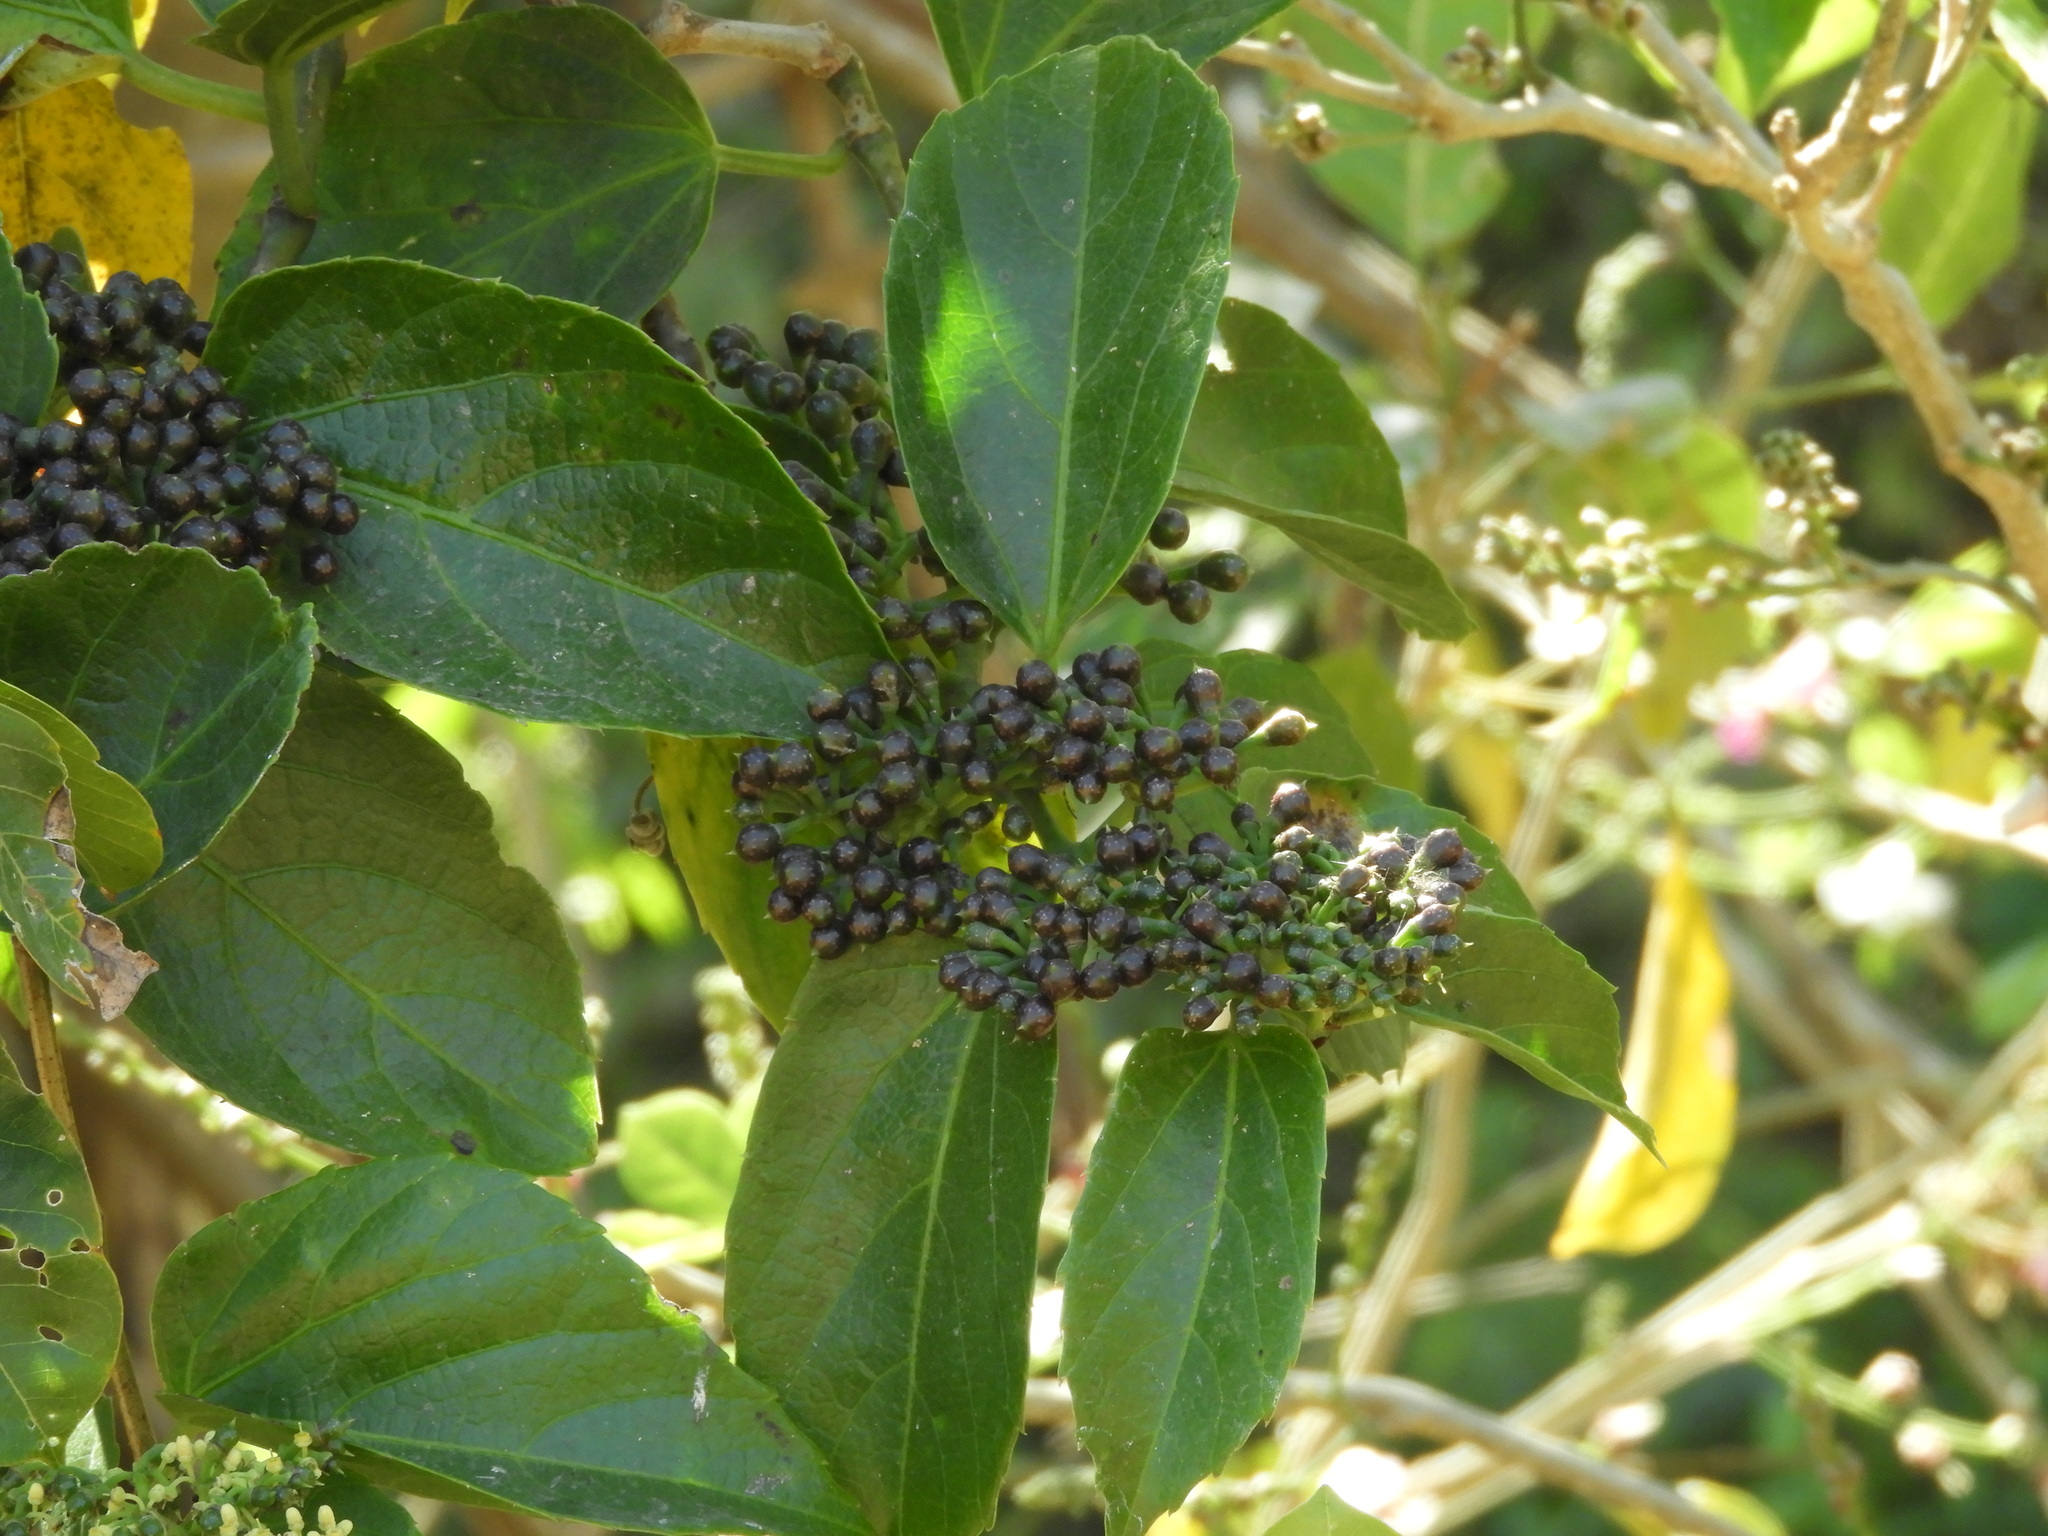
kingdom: Plantae
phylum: Tracheophyta
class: Magnoliopsida
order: Vitales
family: Vitaceae
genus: Cissus
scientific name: Cissus verticillata
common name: Princess vine
